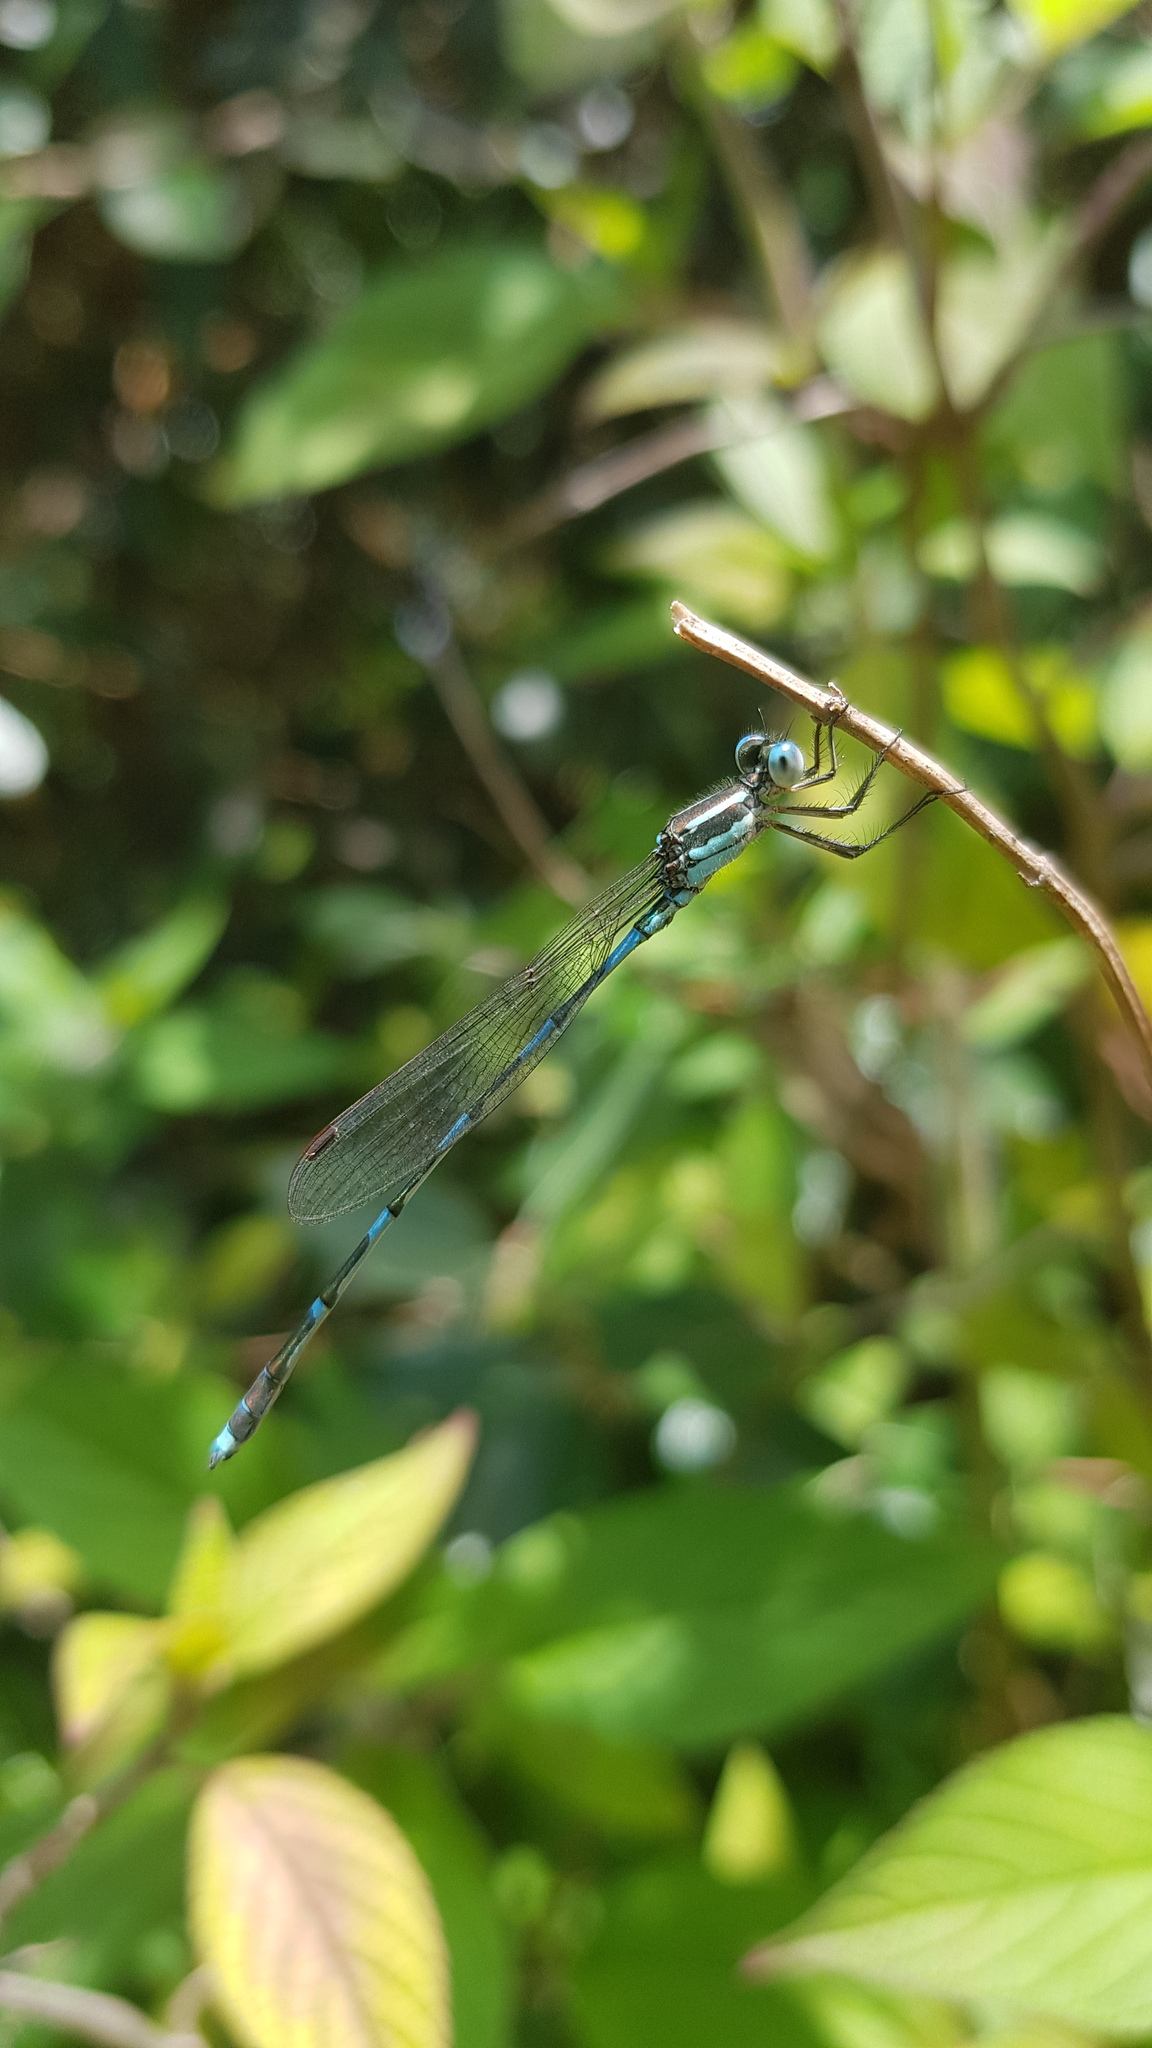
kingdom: Animalia
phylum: Arthropoda
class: Insecta
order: Odonata
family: Lestidae
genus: Austrolestes
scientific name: Austrolestes leda
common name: Wandering ringtail
